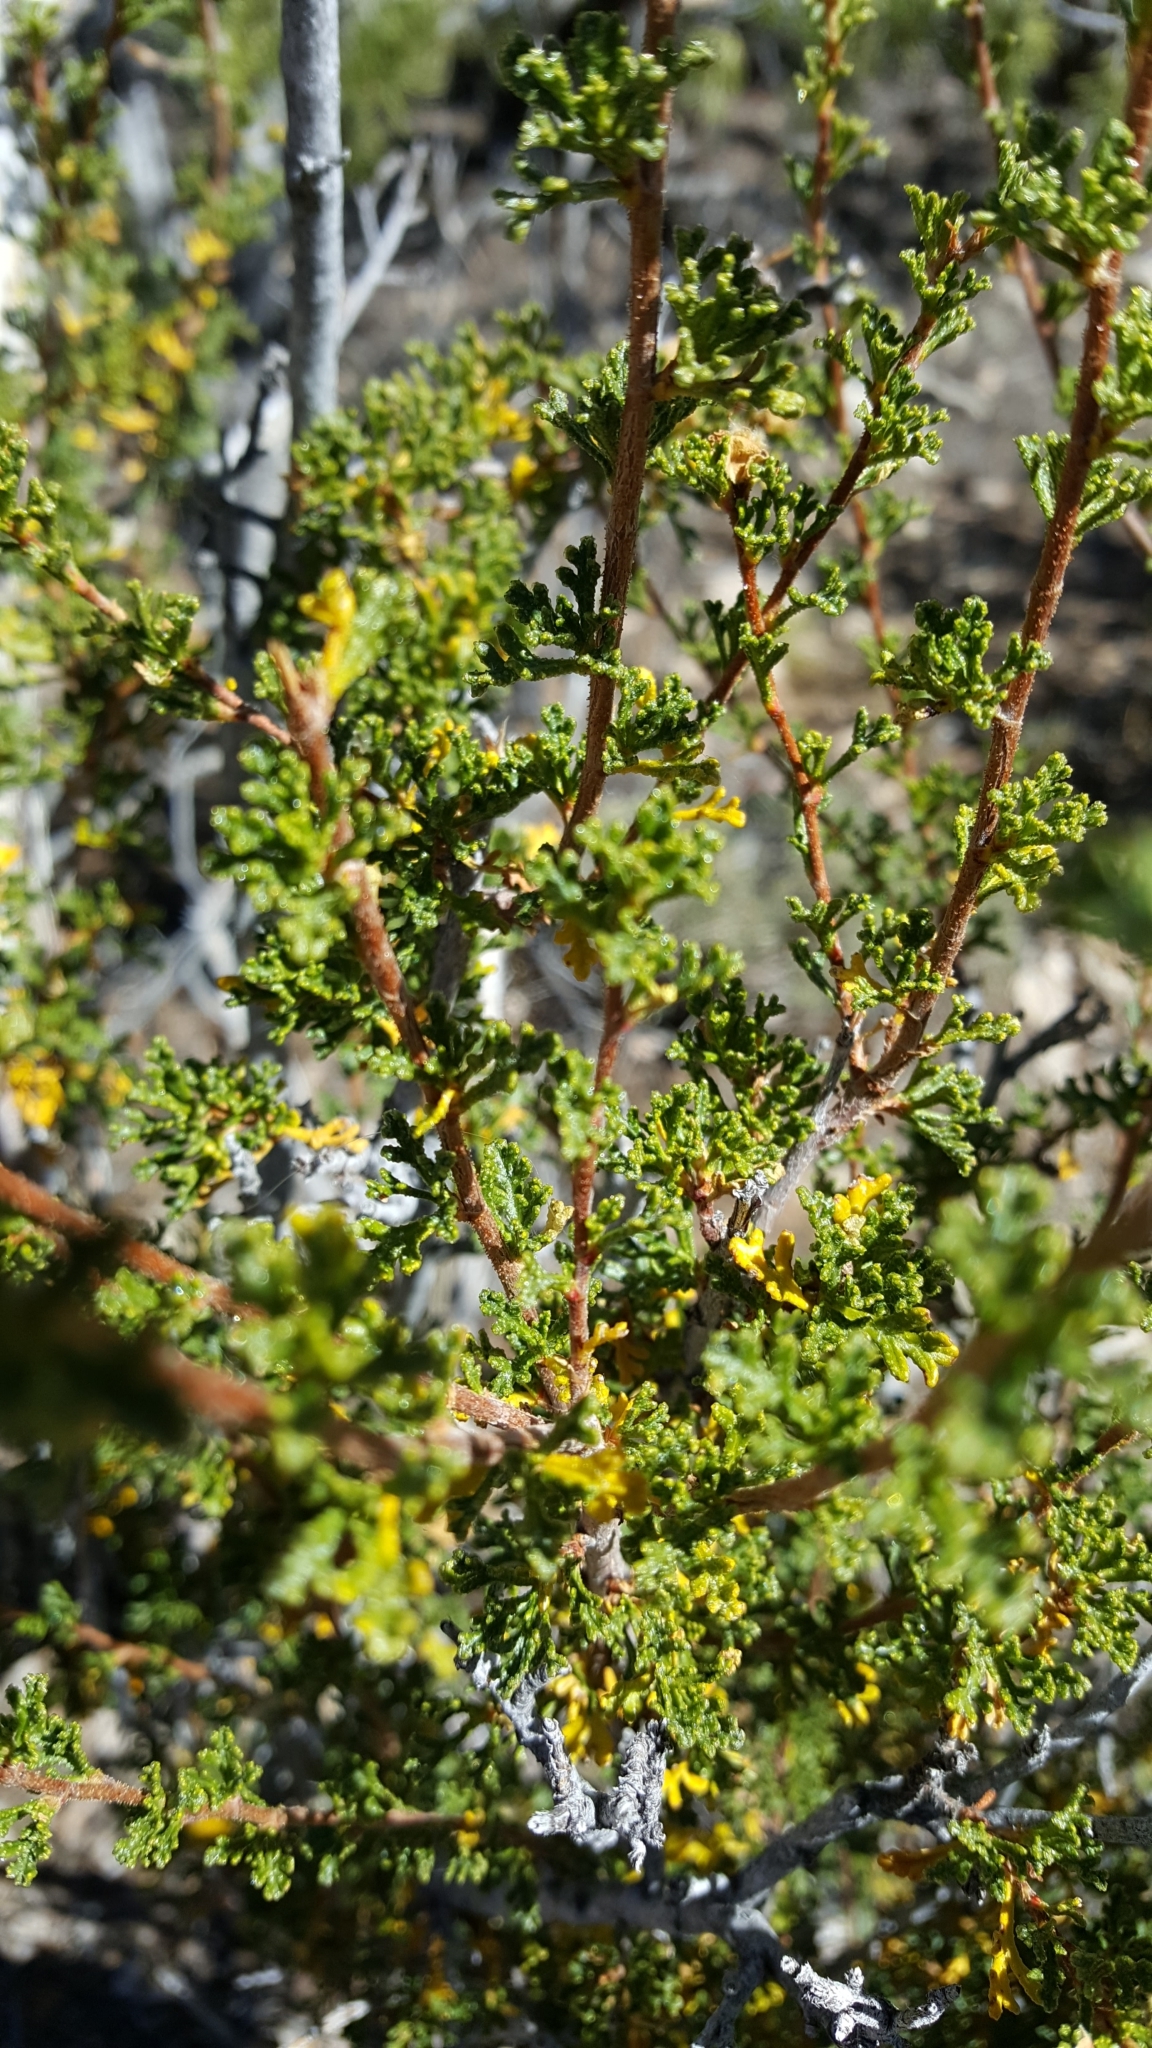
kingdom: Plantae
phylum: Tracheophyta
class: Magnoliopsida
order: Rosales
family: Rosaceae
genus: Purshia
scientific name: Purshia stansburiana
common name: Stansbury's cliffrose
